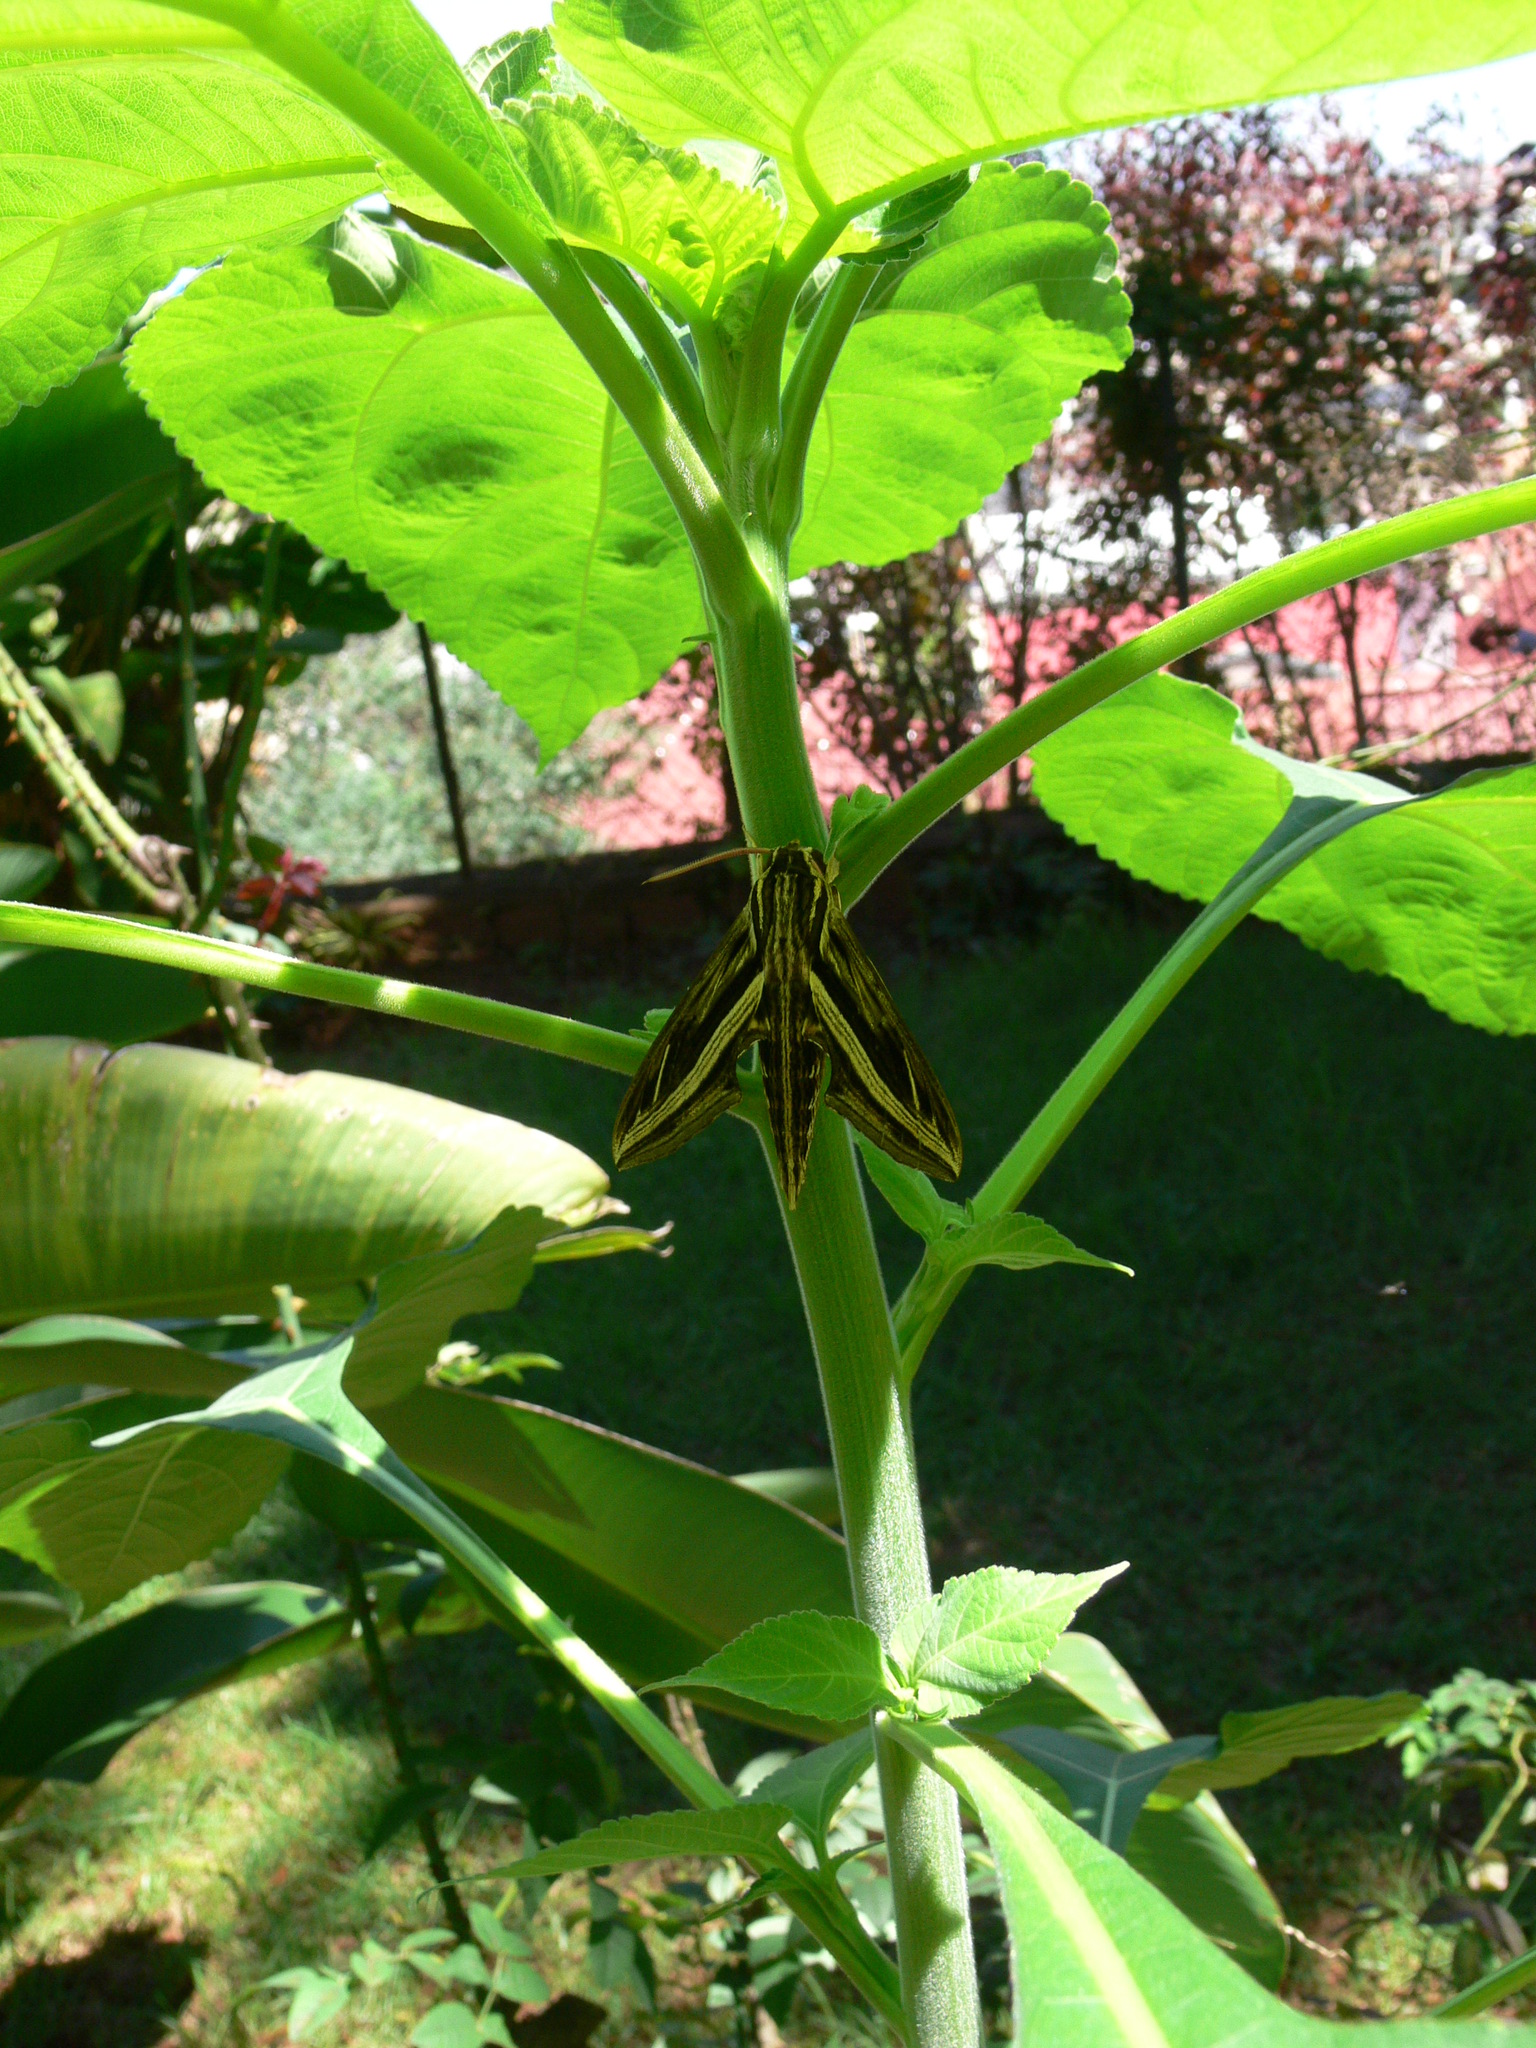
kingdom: Animalia
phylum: Arthropoda
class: Insecta
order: Lepidoptera
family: Sphingidae
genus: Hippotion
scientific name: Hippotion geryon
